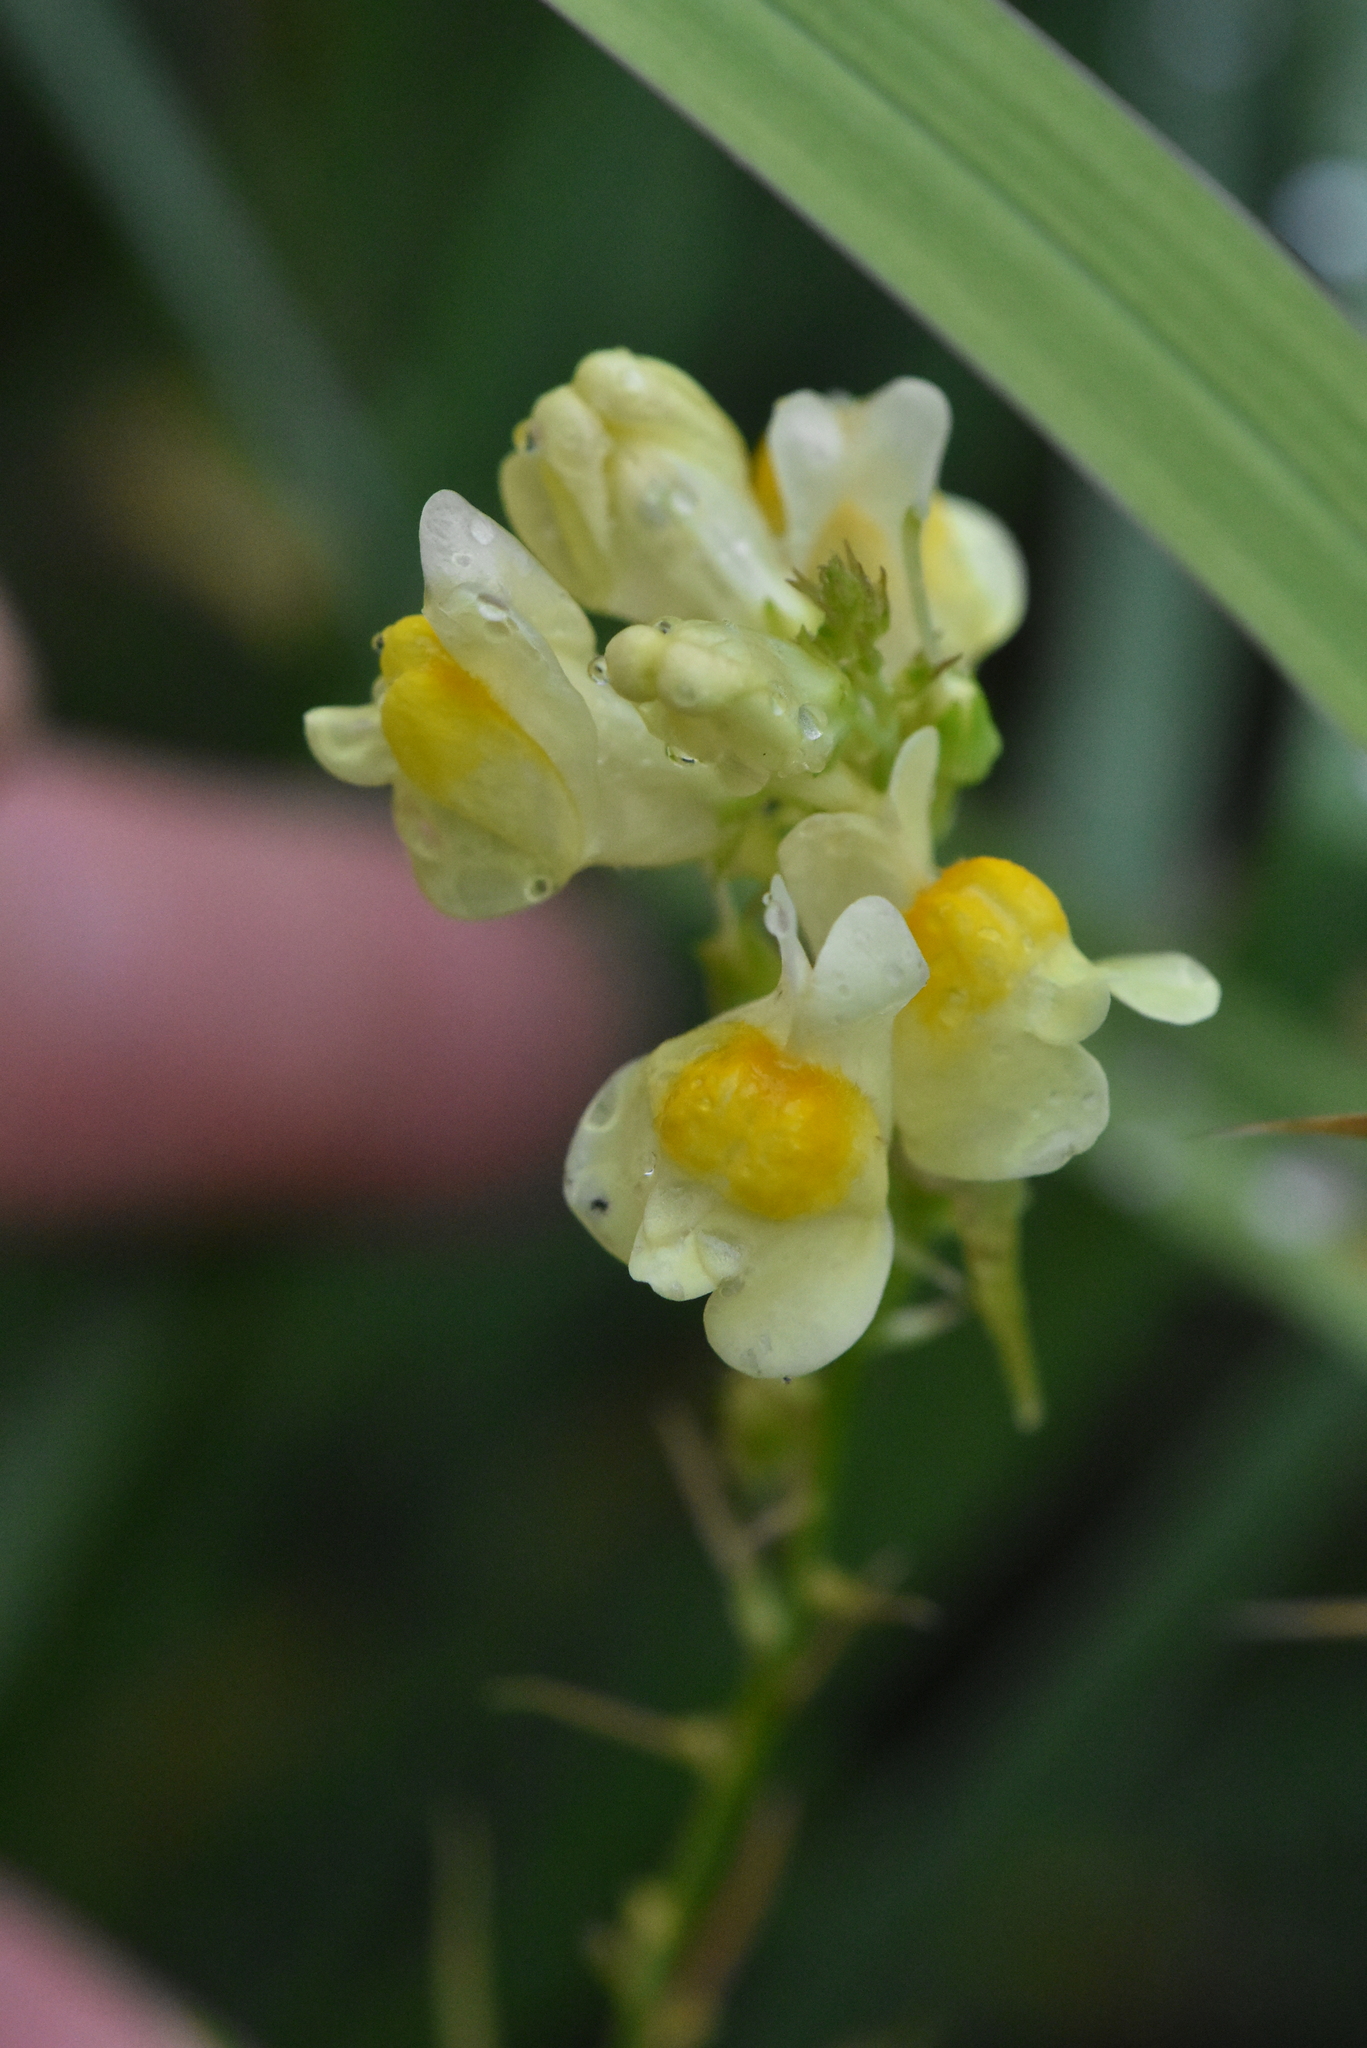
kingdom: Plantae
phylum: Tracheophyta
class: Magnoliopsida
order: Lamiales
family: Plantaginaceae
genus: Linaria
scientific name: Linaria vulgaris
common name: Butter and eggs
